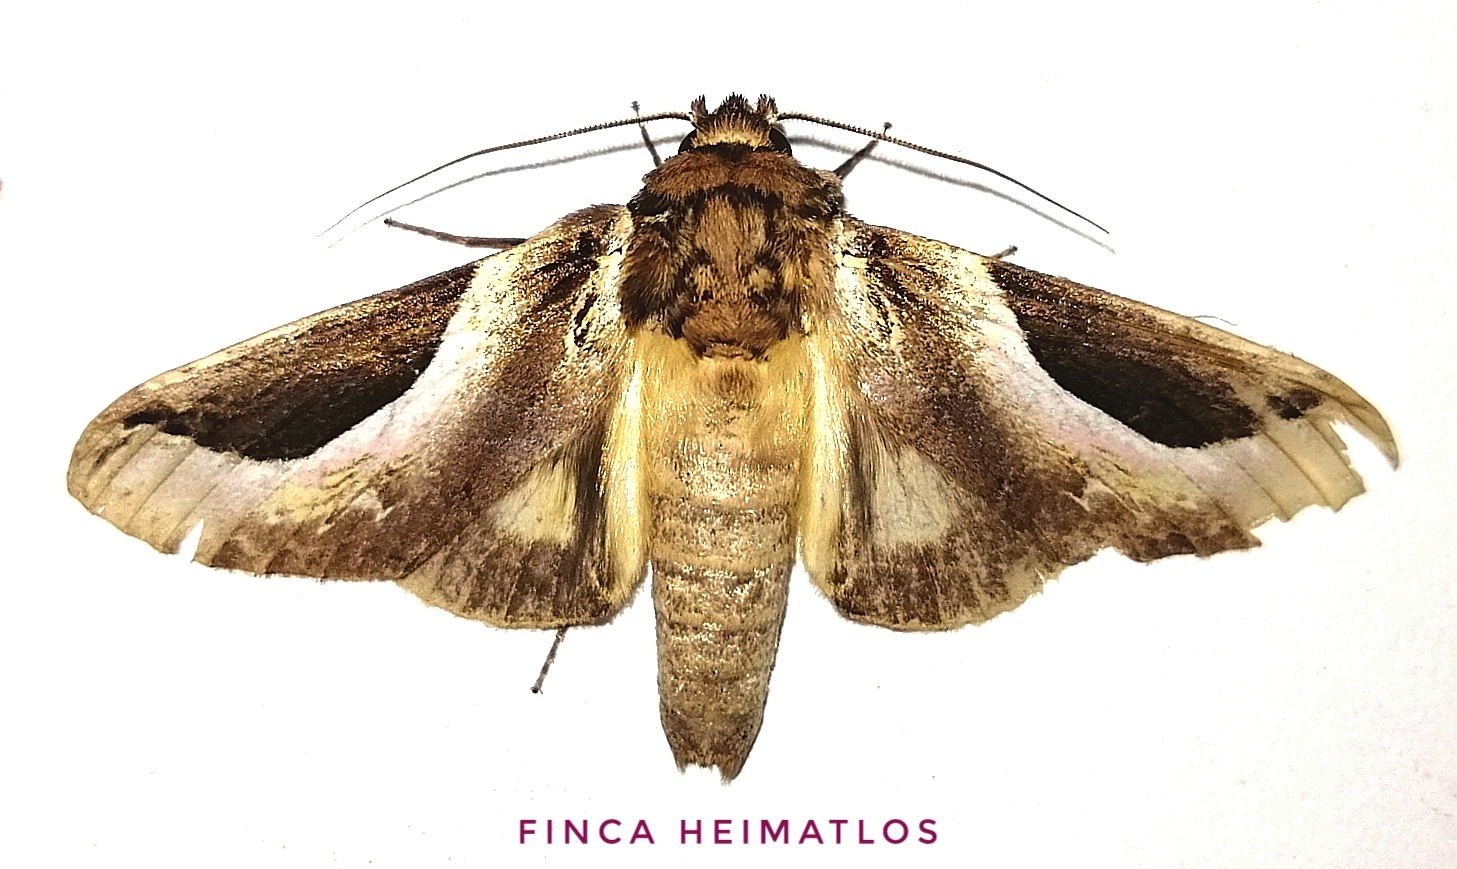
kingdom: Animalia
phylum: Arthropoda
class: Insecta
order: Lepidoptera
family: Notodontidae
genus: Rhuda
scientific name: Rhuda focula
